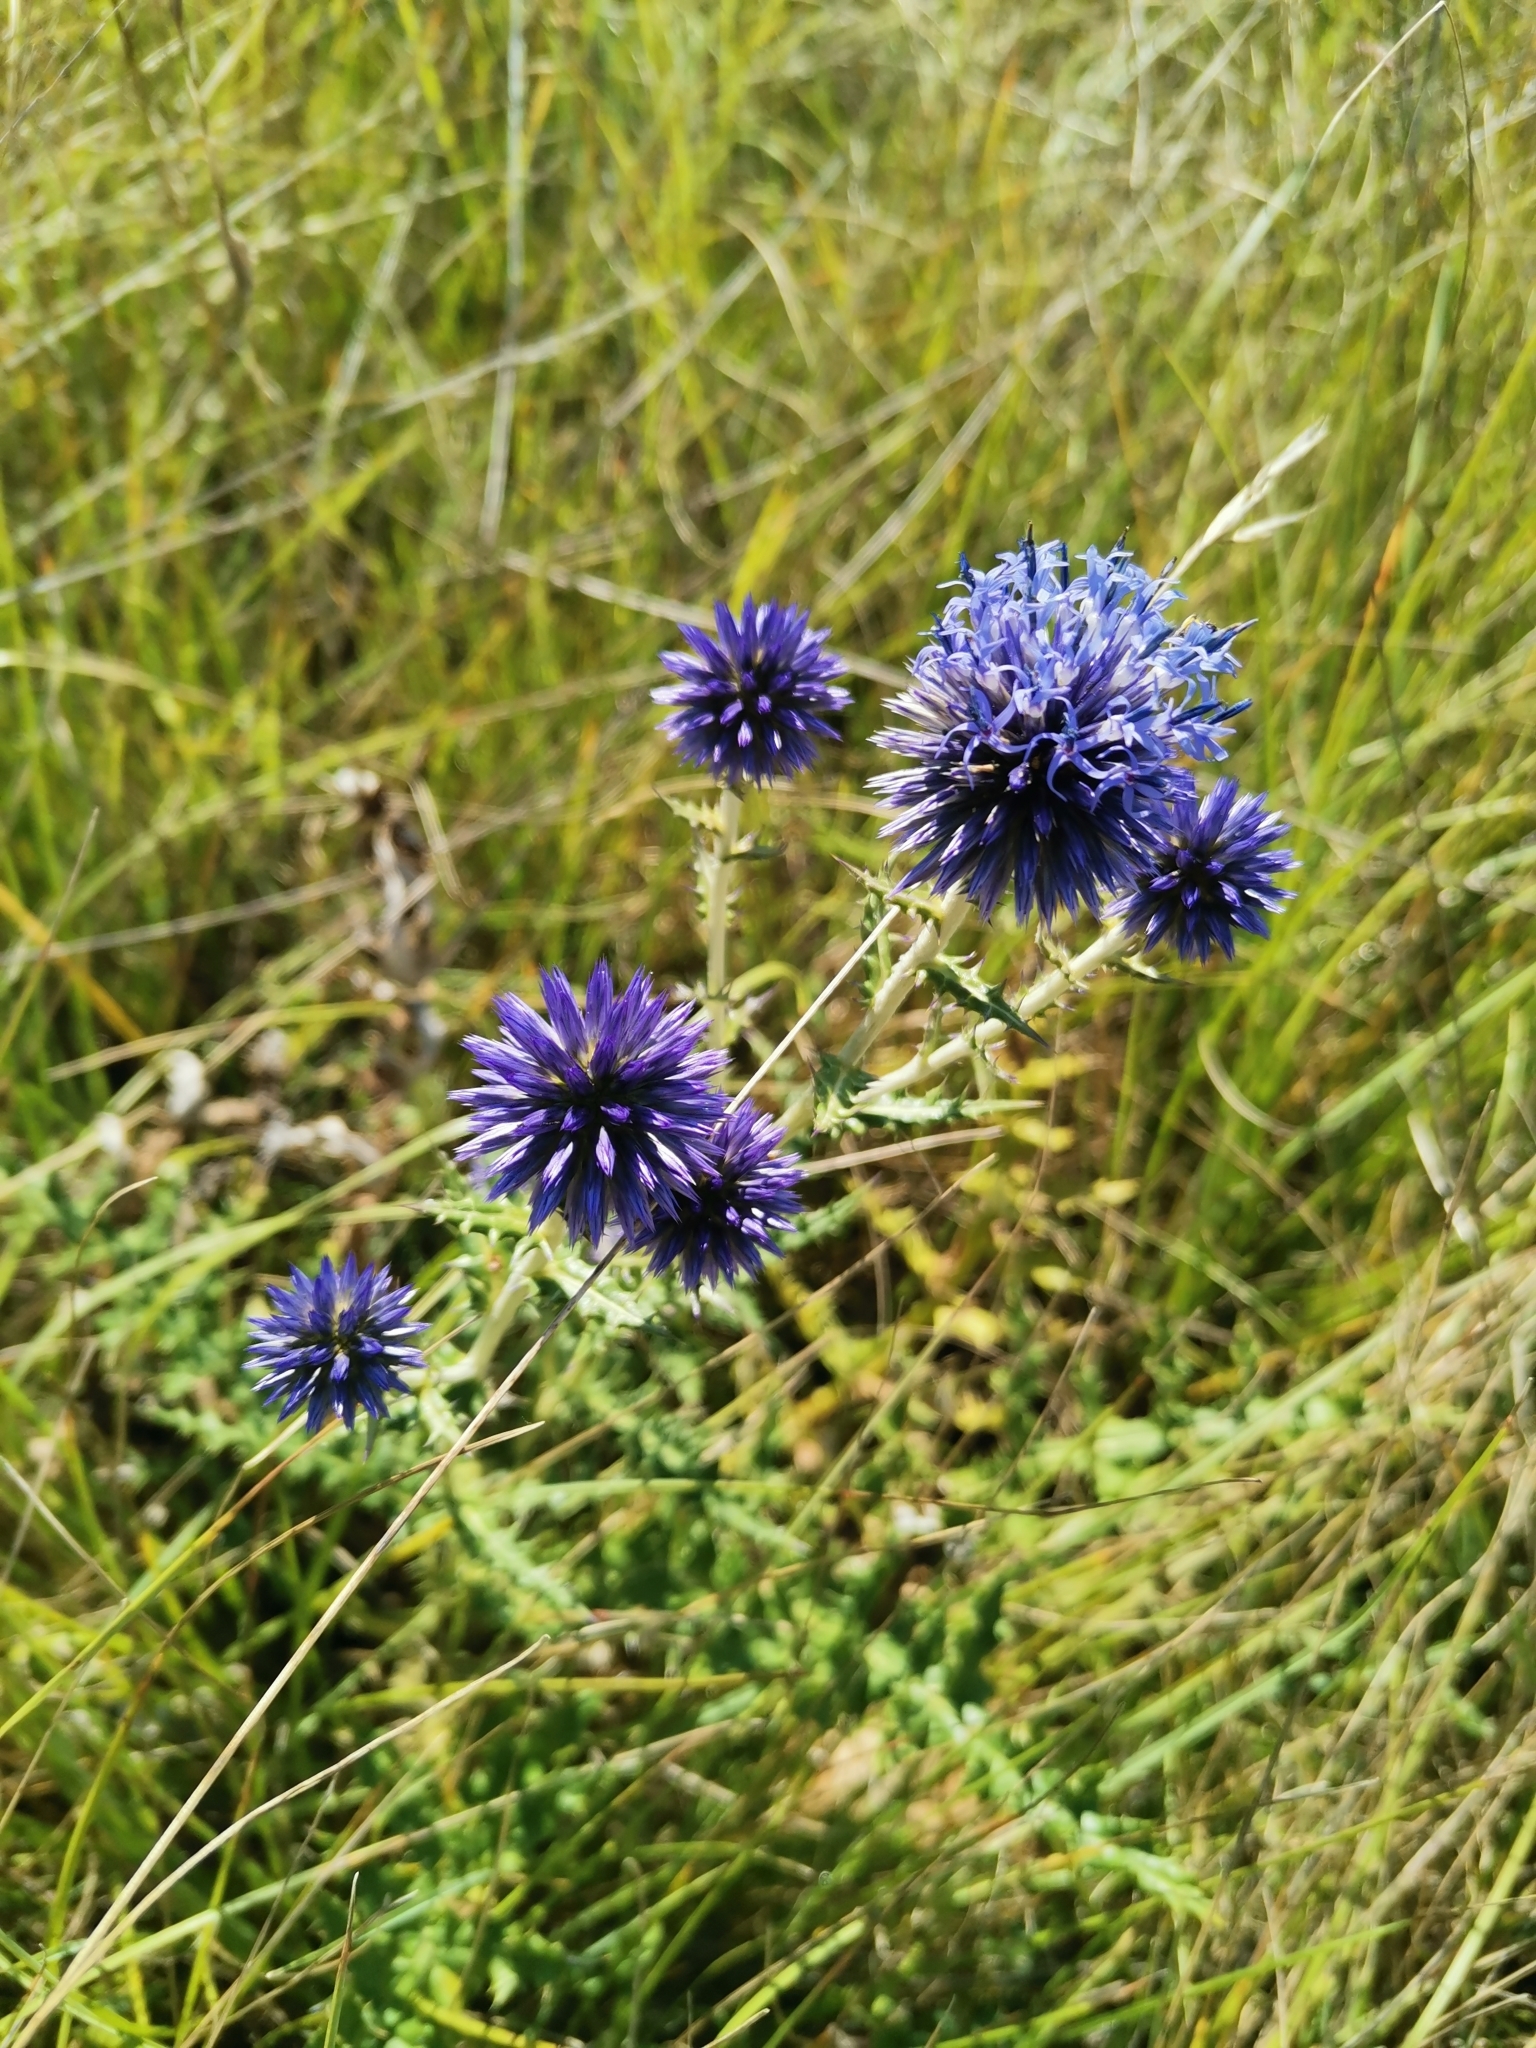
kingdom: Plantae
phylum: Tracheophyta
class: Magnoliopsida
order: Asterales
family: Asteraceae
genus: Echinops
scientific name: Echinops ritro
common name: Globe thistle
